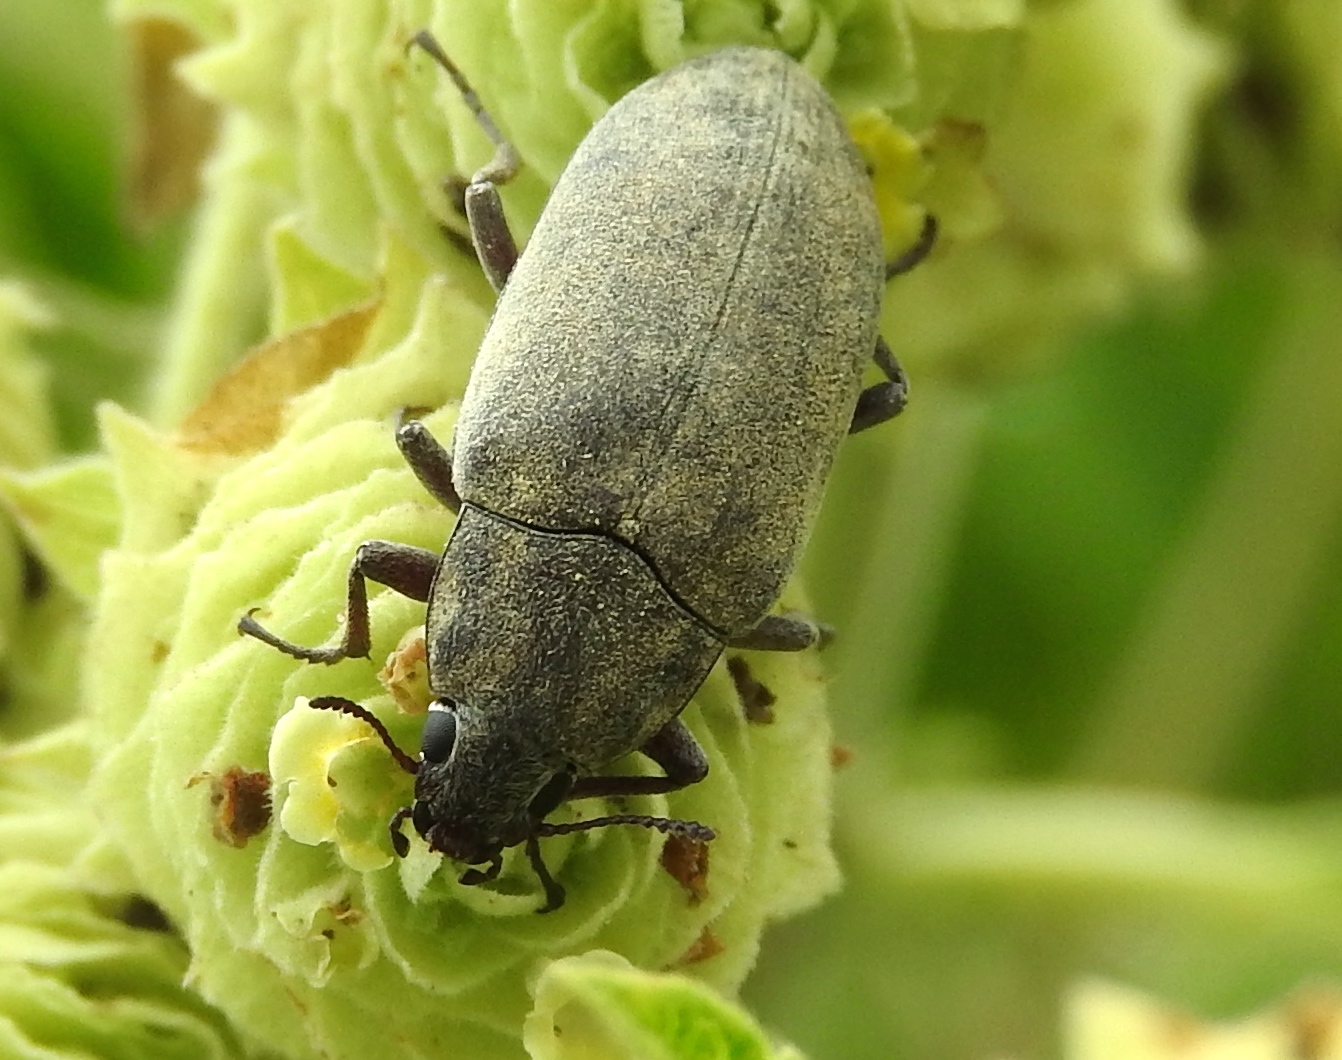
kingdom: Animalia
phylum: Arthropoda
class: Insecta
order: Coleoptera
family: Tenebrionidae
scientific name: Tenebrionidae
